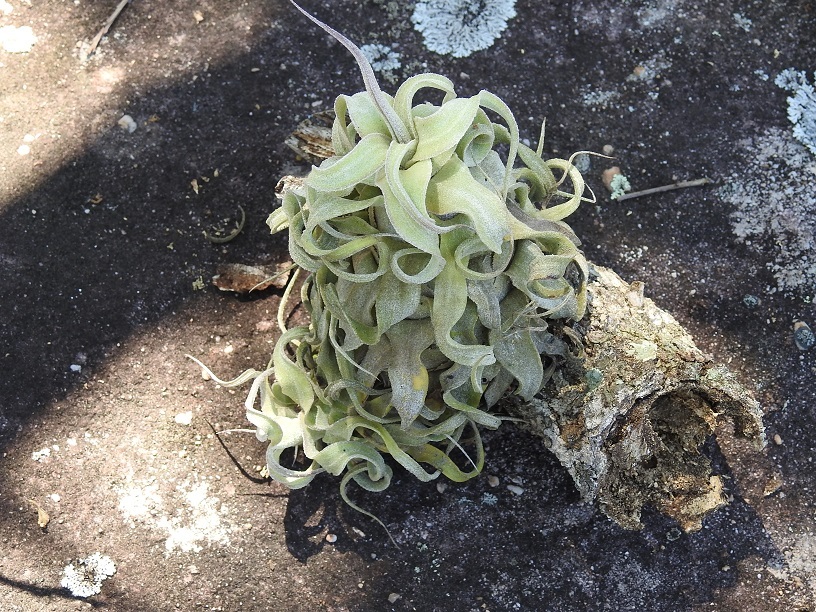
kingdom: Plantae
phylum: Tracheophyta
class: Liliopsida
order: Poales
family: Bromeliaceae
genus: Tillandsia
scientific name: Tillandsia streptophylla
